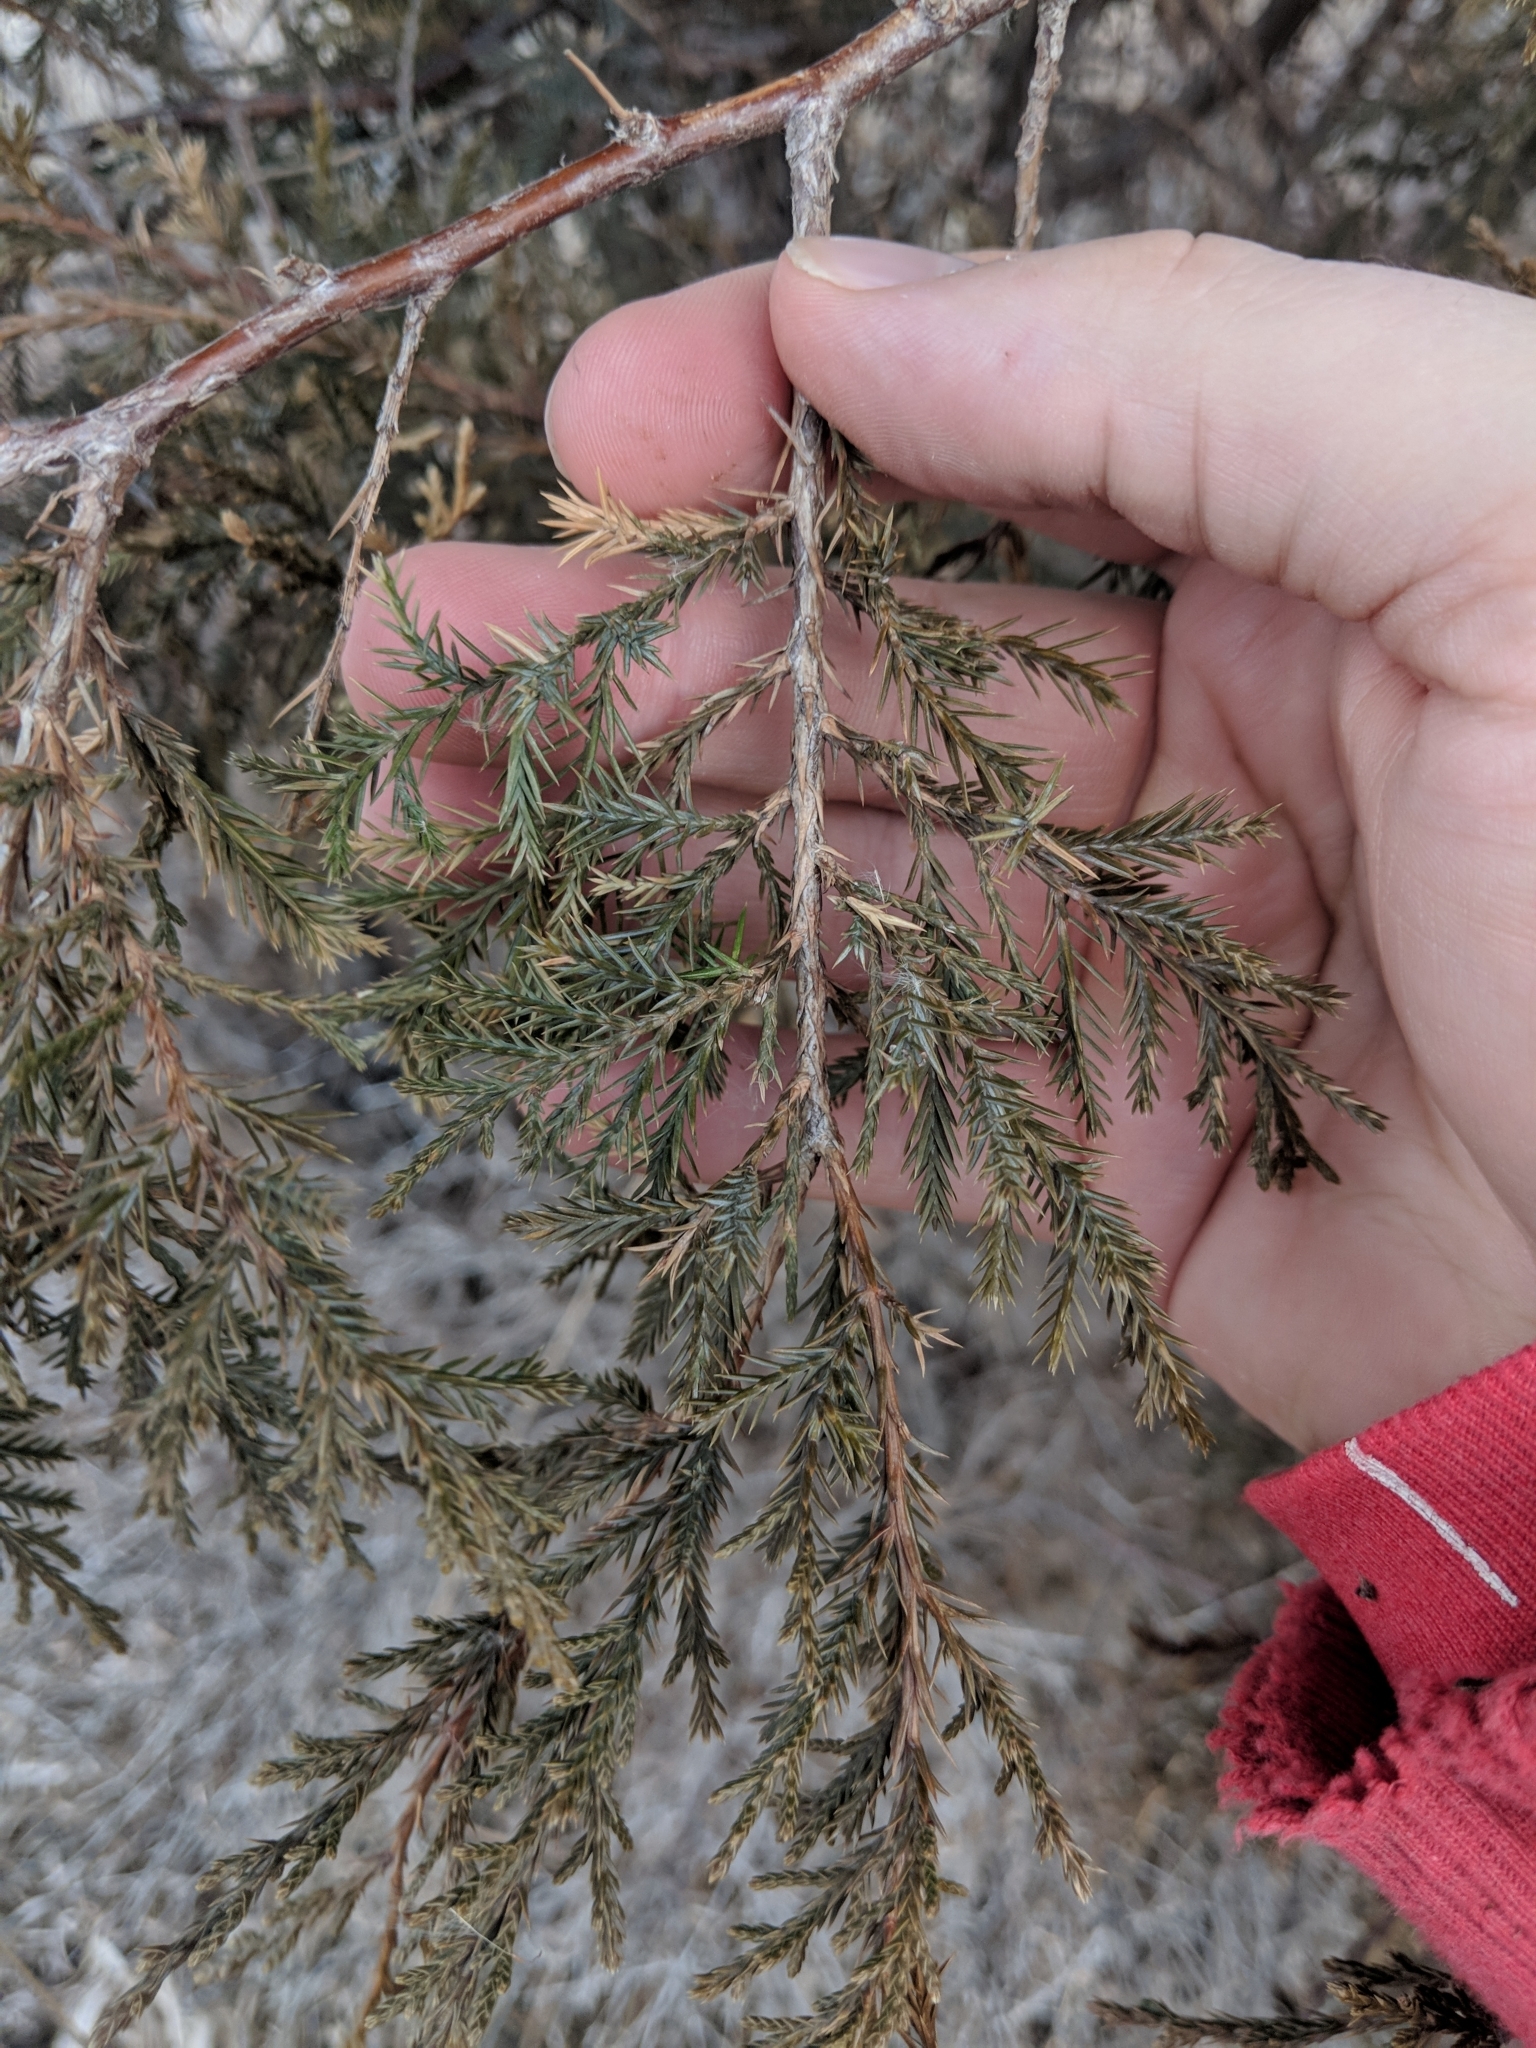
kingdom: Plantae
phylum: Tracheophyta
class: Pinopsida
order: Pinales
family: Cupressaceae
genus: Juniperus
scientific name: Juniperus virginiana
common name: Red juniper
